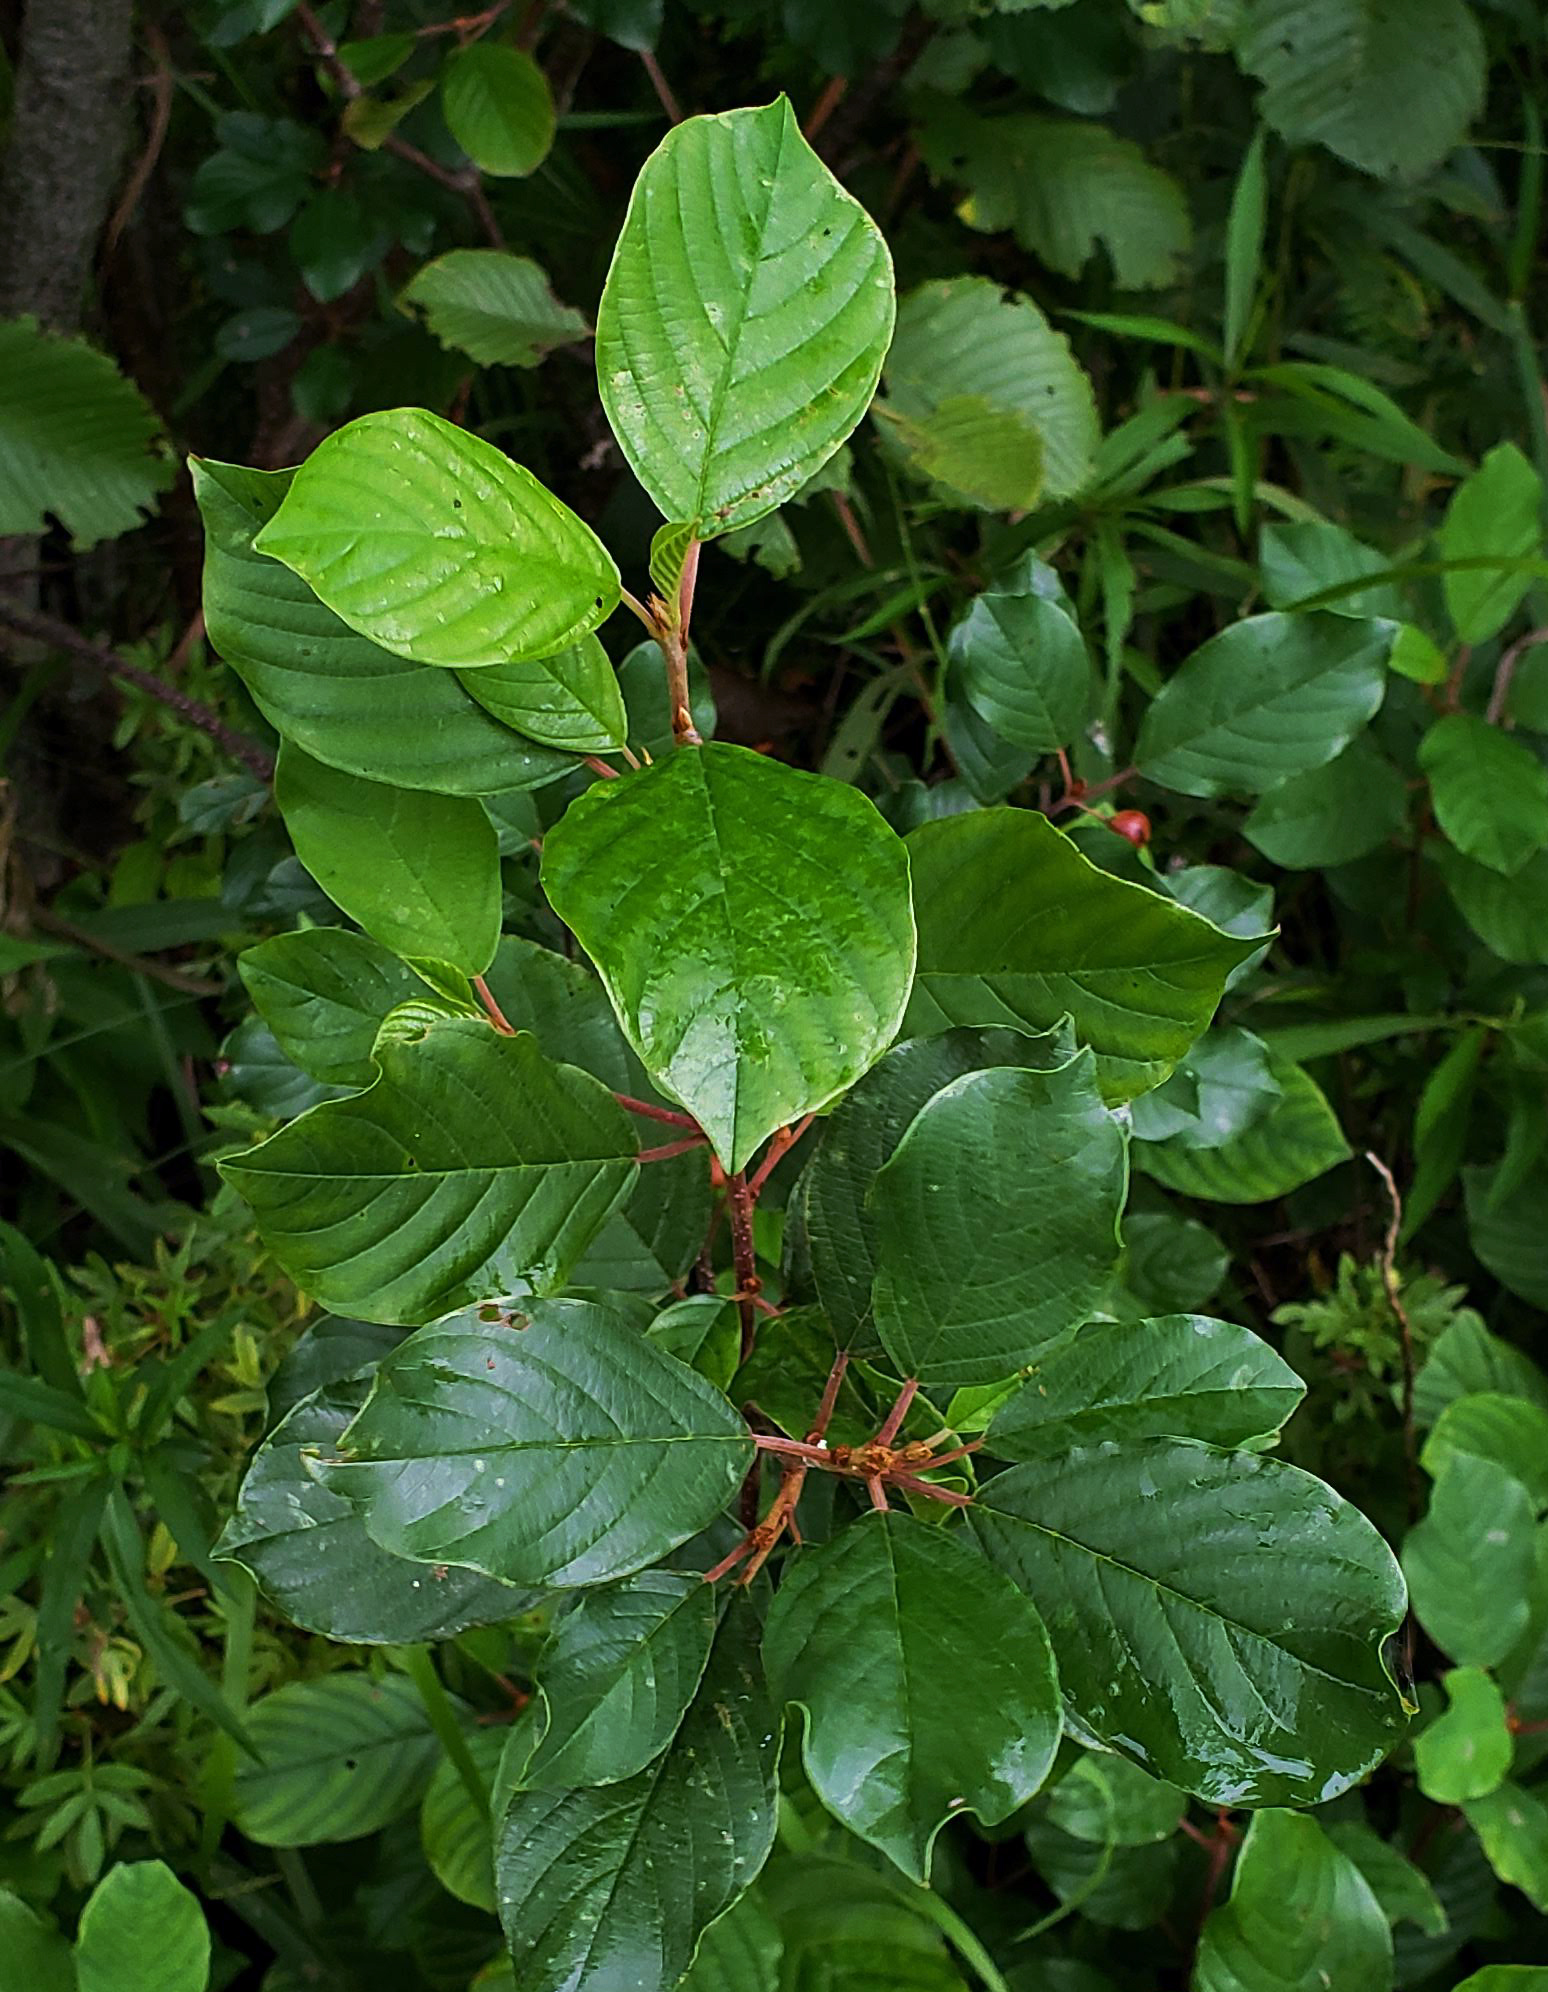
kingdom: Plantae
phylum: Tracheophyta
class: Magnoliopsida
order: Rosales
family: Rhamnaceae
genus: Frangula
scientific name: Frangula alnus
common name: Alder buckthorn
